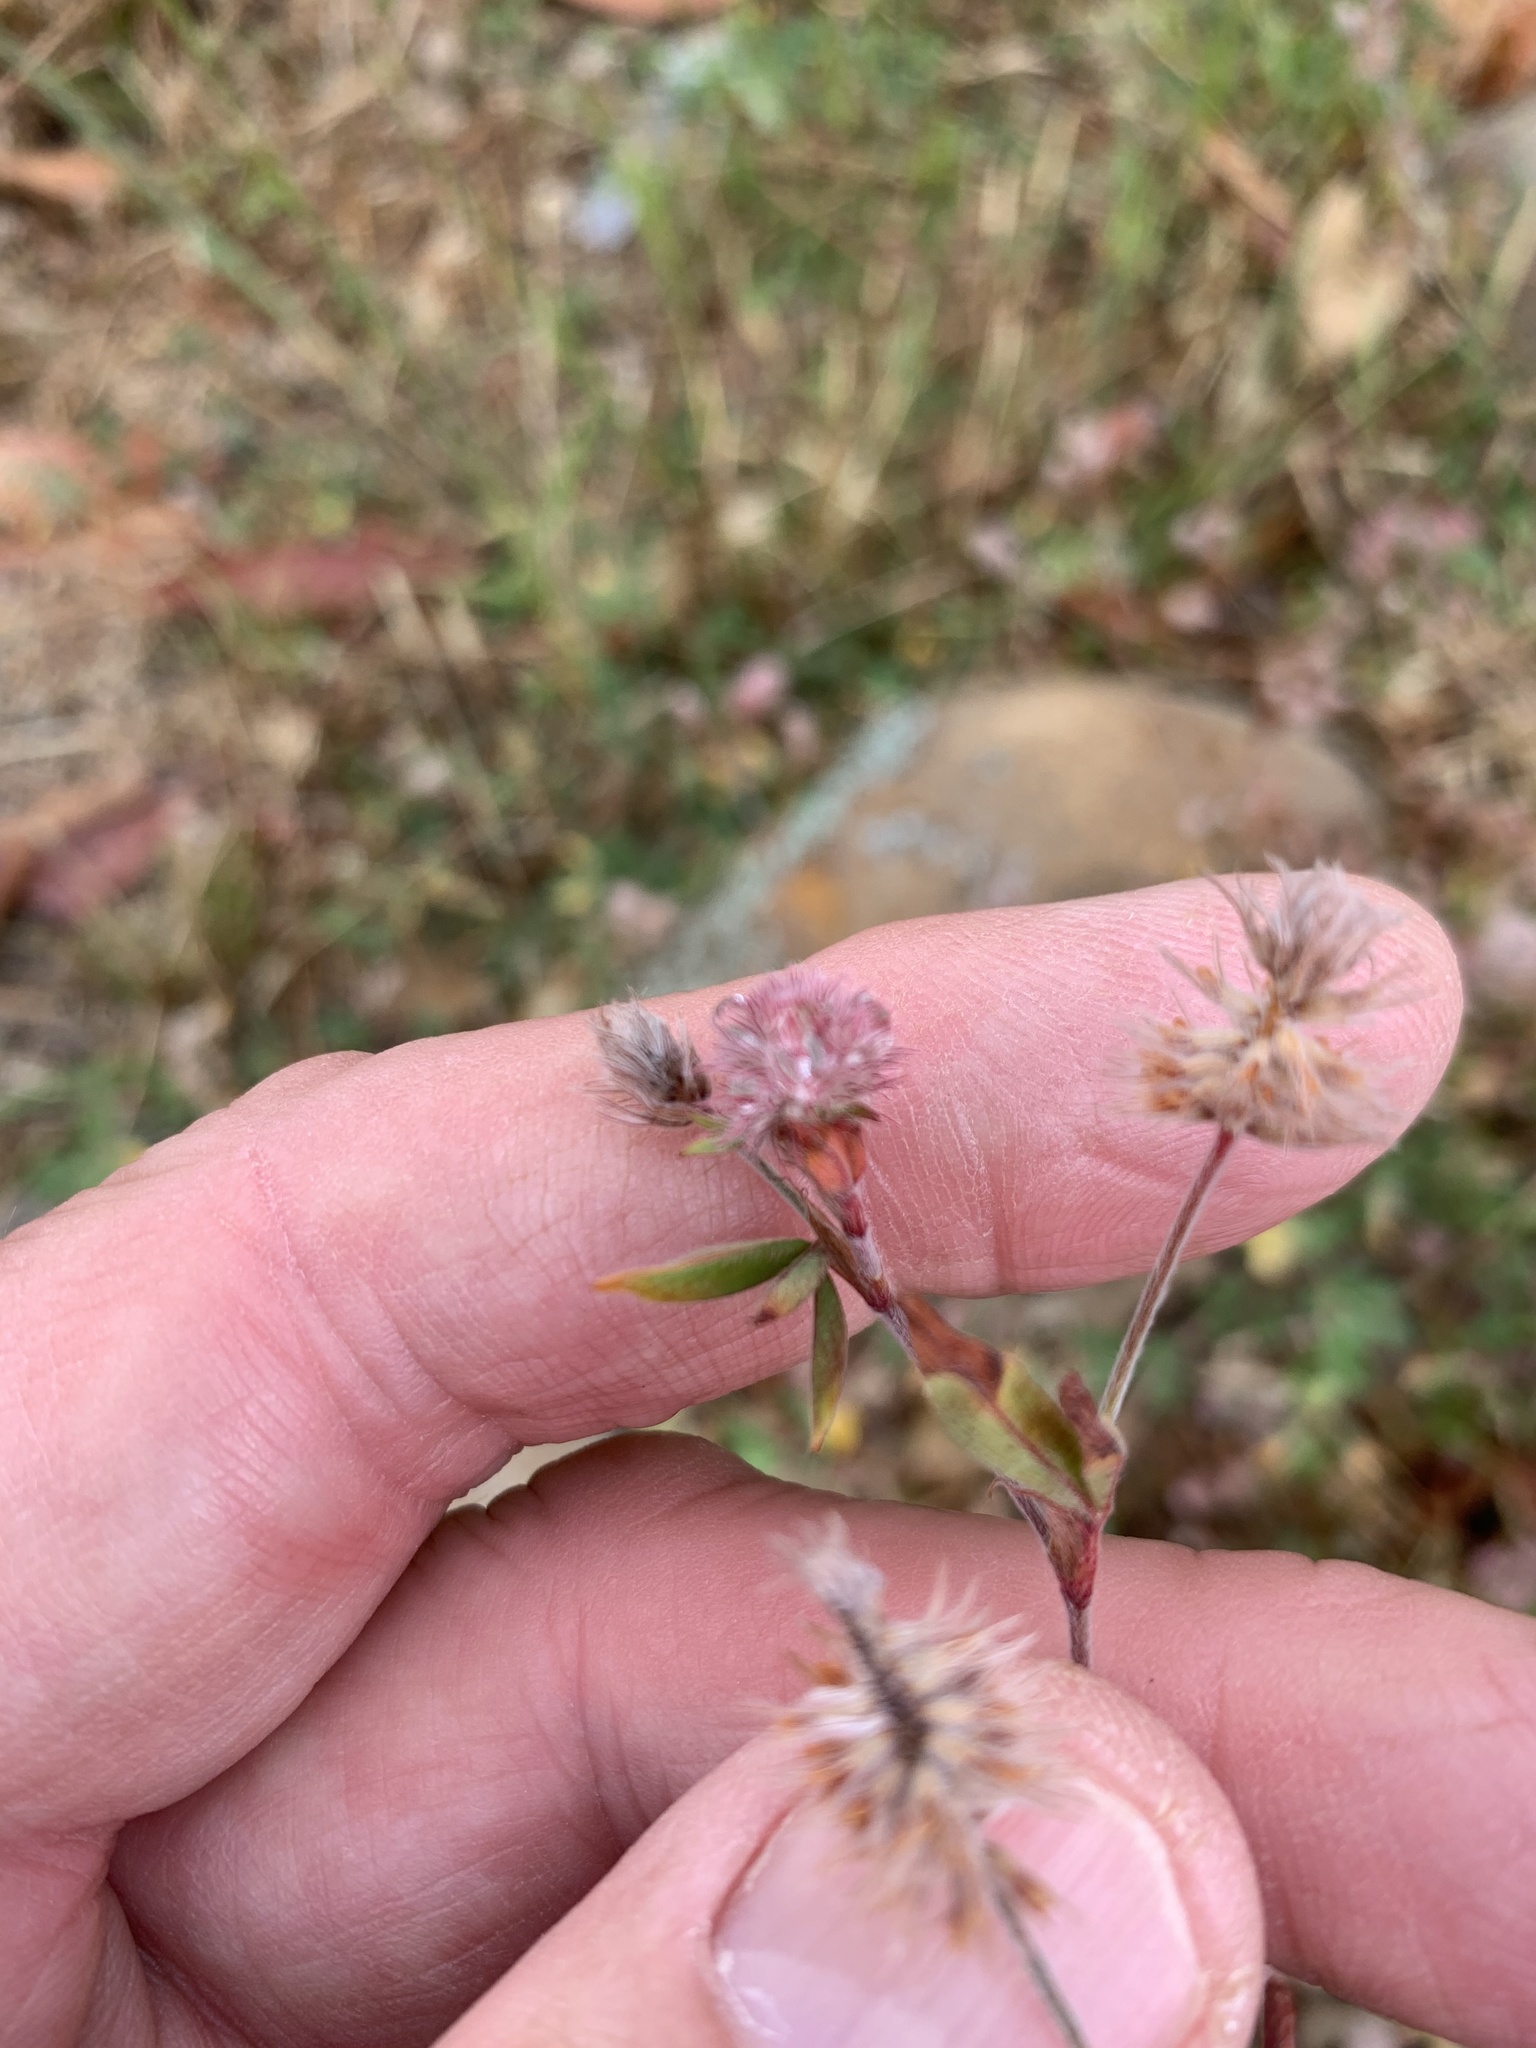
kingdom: Plantae
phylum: Tracheophyta
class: Magnoliopsida
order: Fabales
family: Fabaceae
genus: Trifolium
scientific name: Trifolium arvense
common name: Hare's-foot clover
